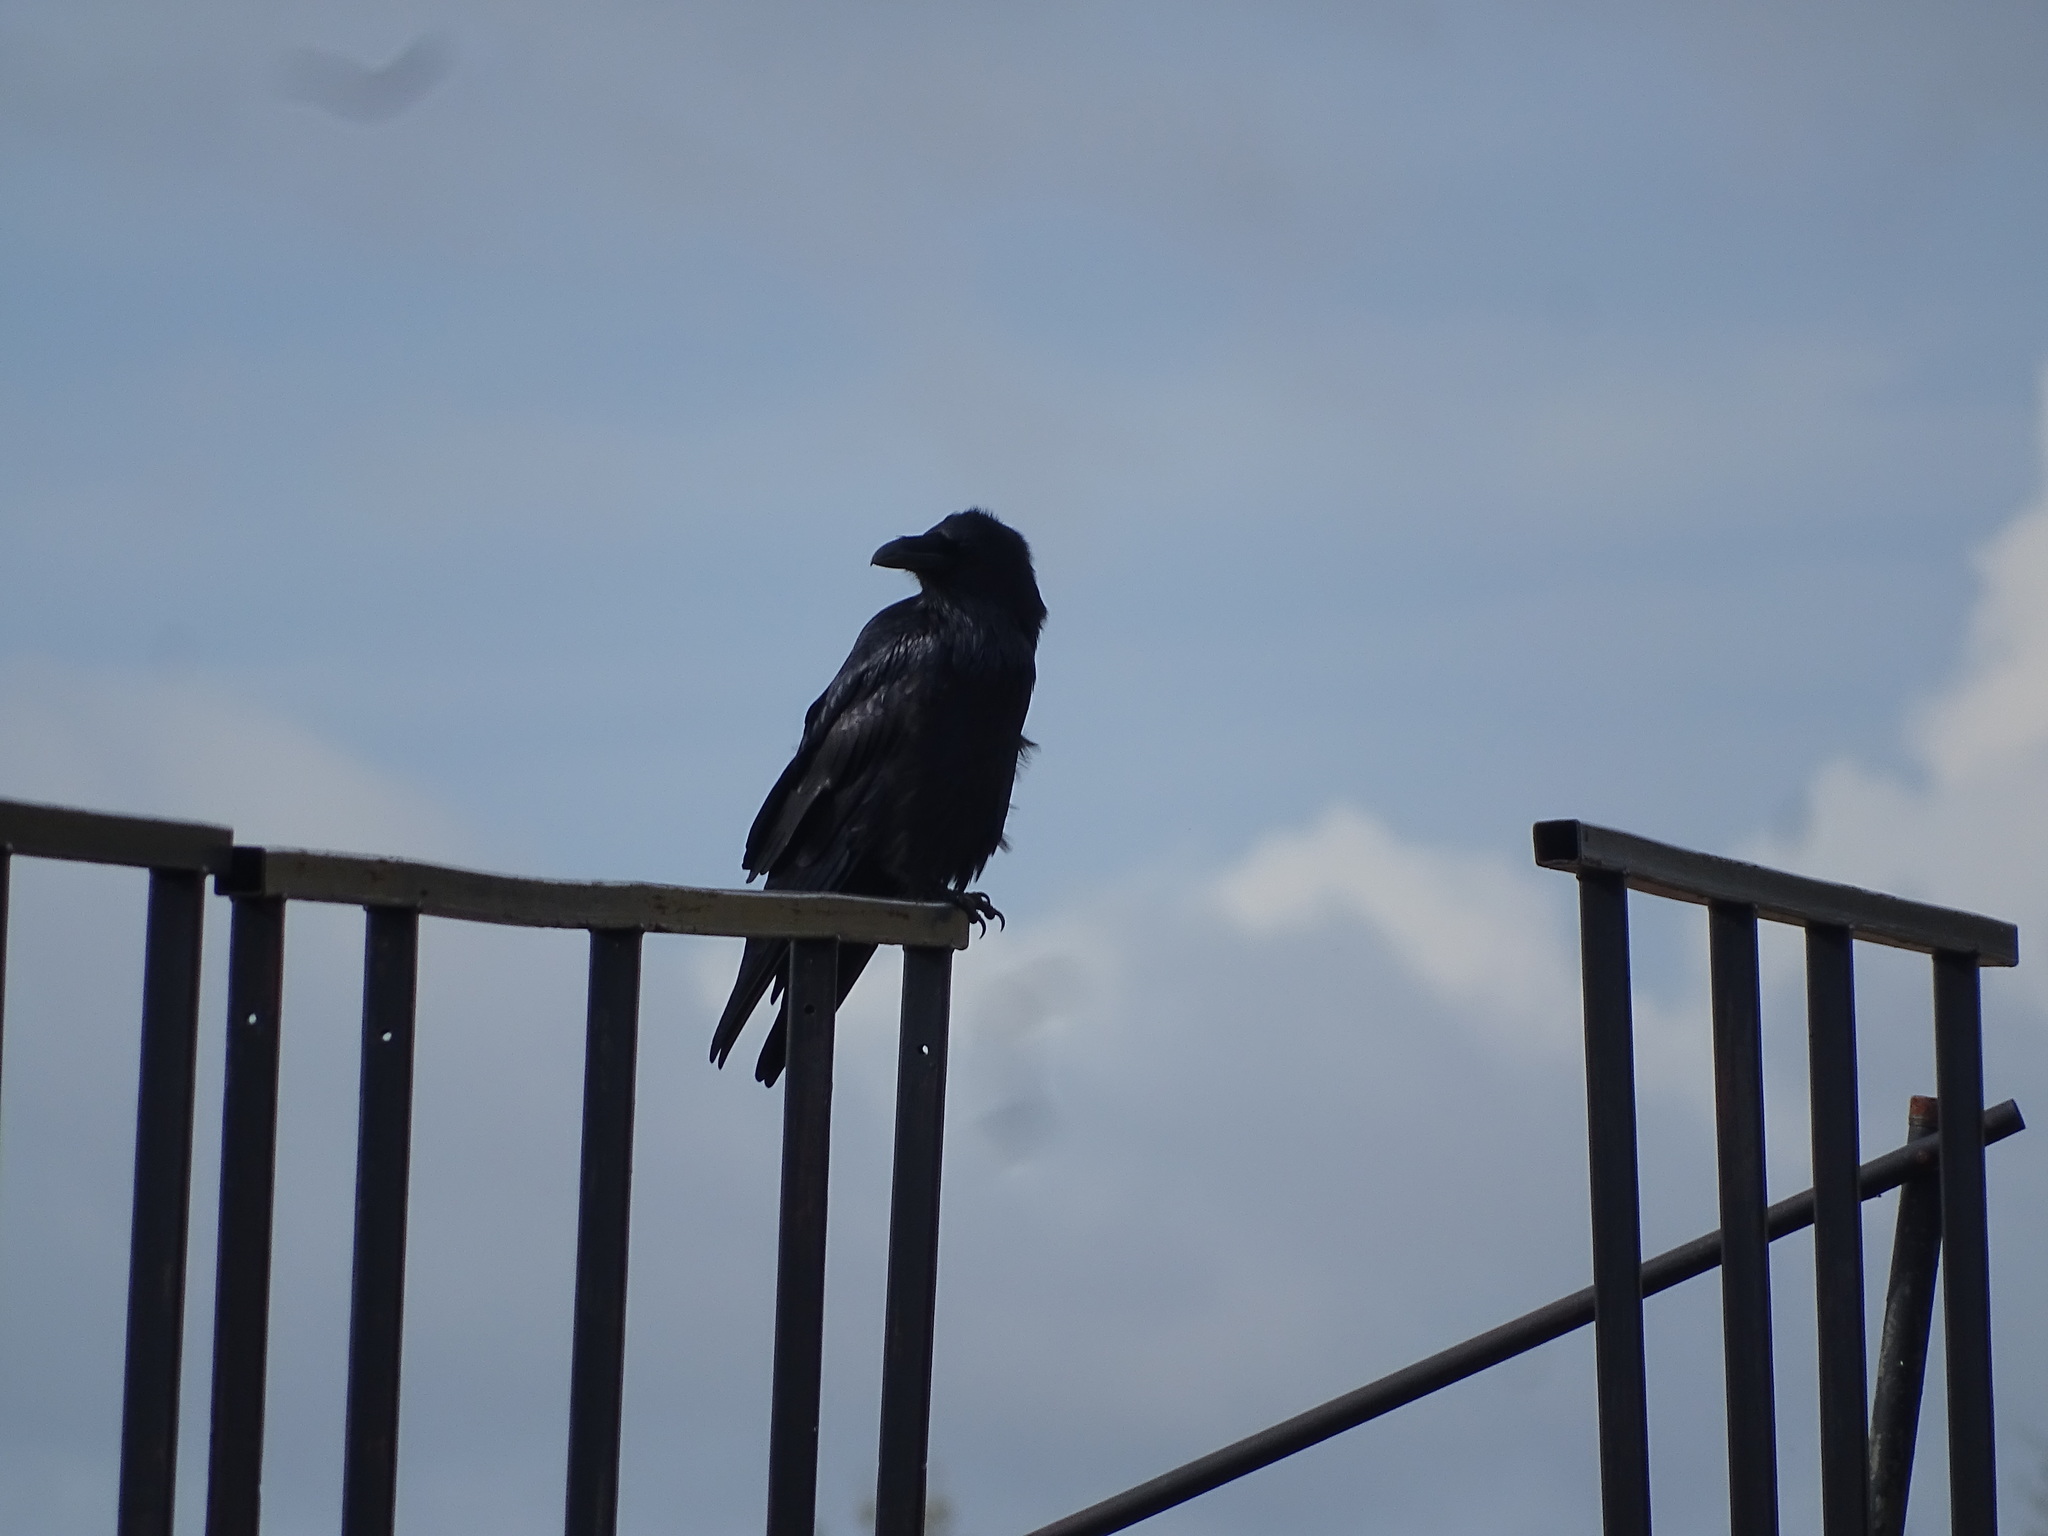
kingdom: Animalia
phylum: Chordata
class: Aves
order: Passeriformes
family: Corvidae
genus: Corvus
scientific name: Corvus corax
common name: Common raven
